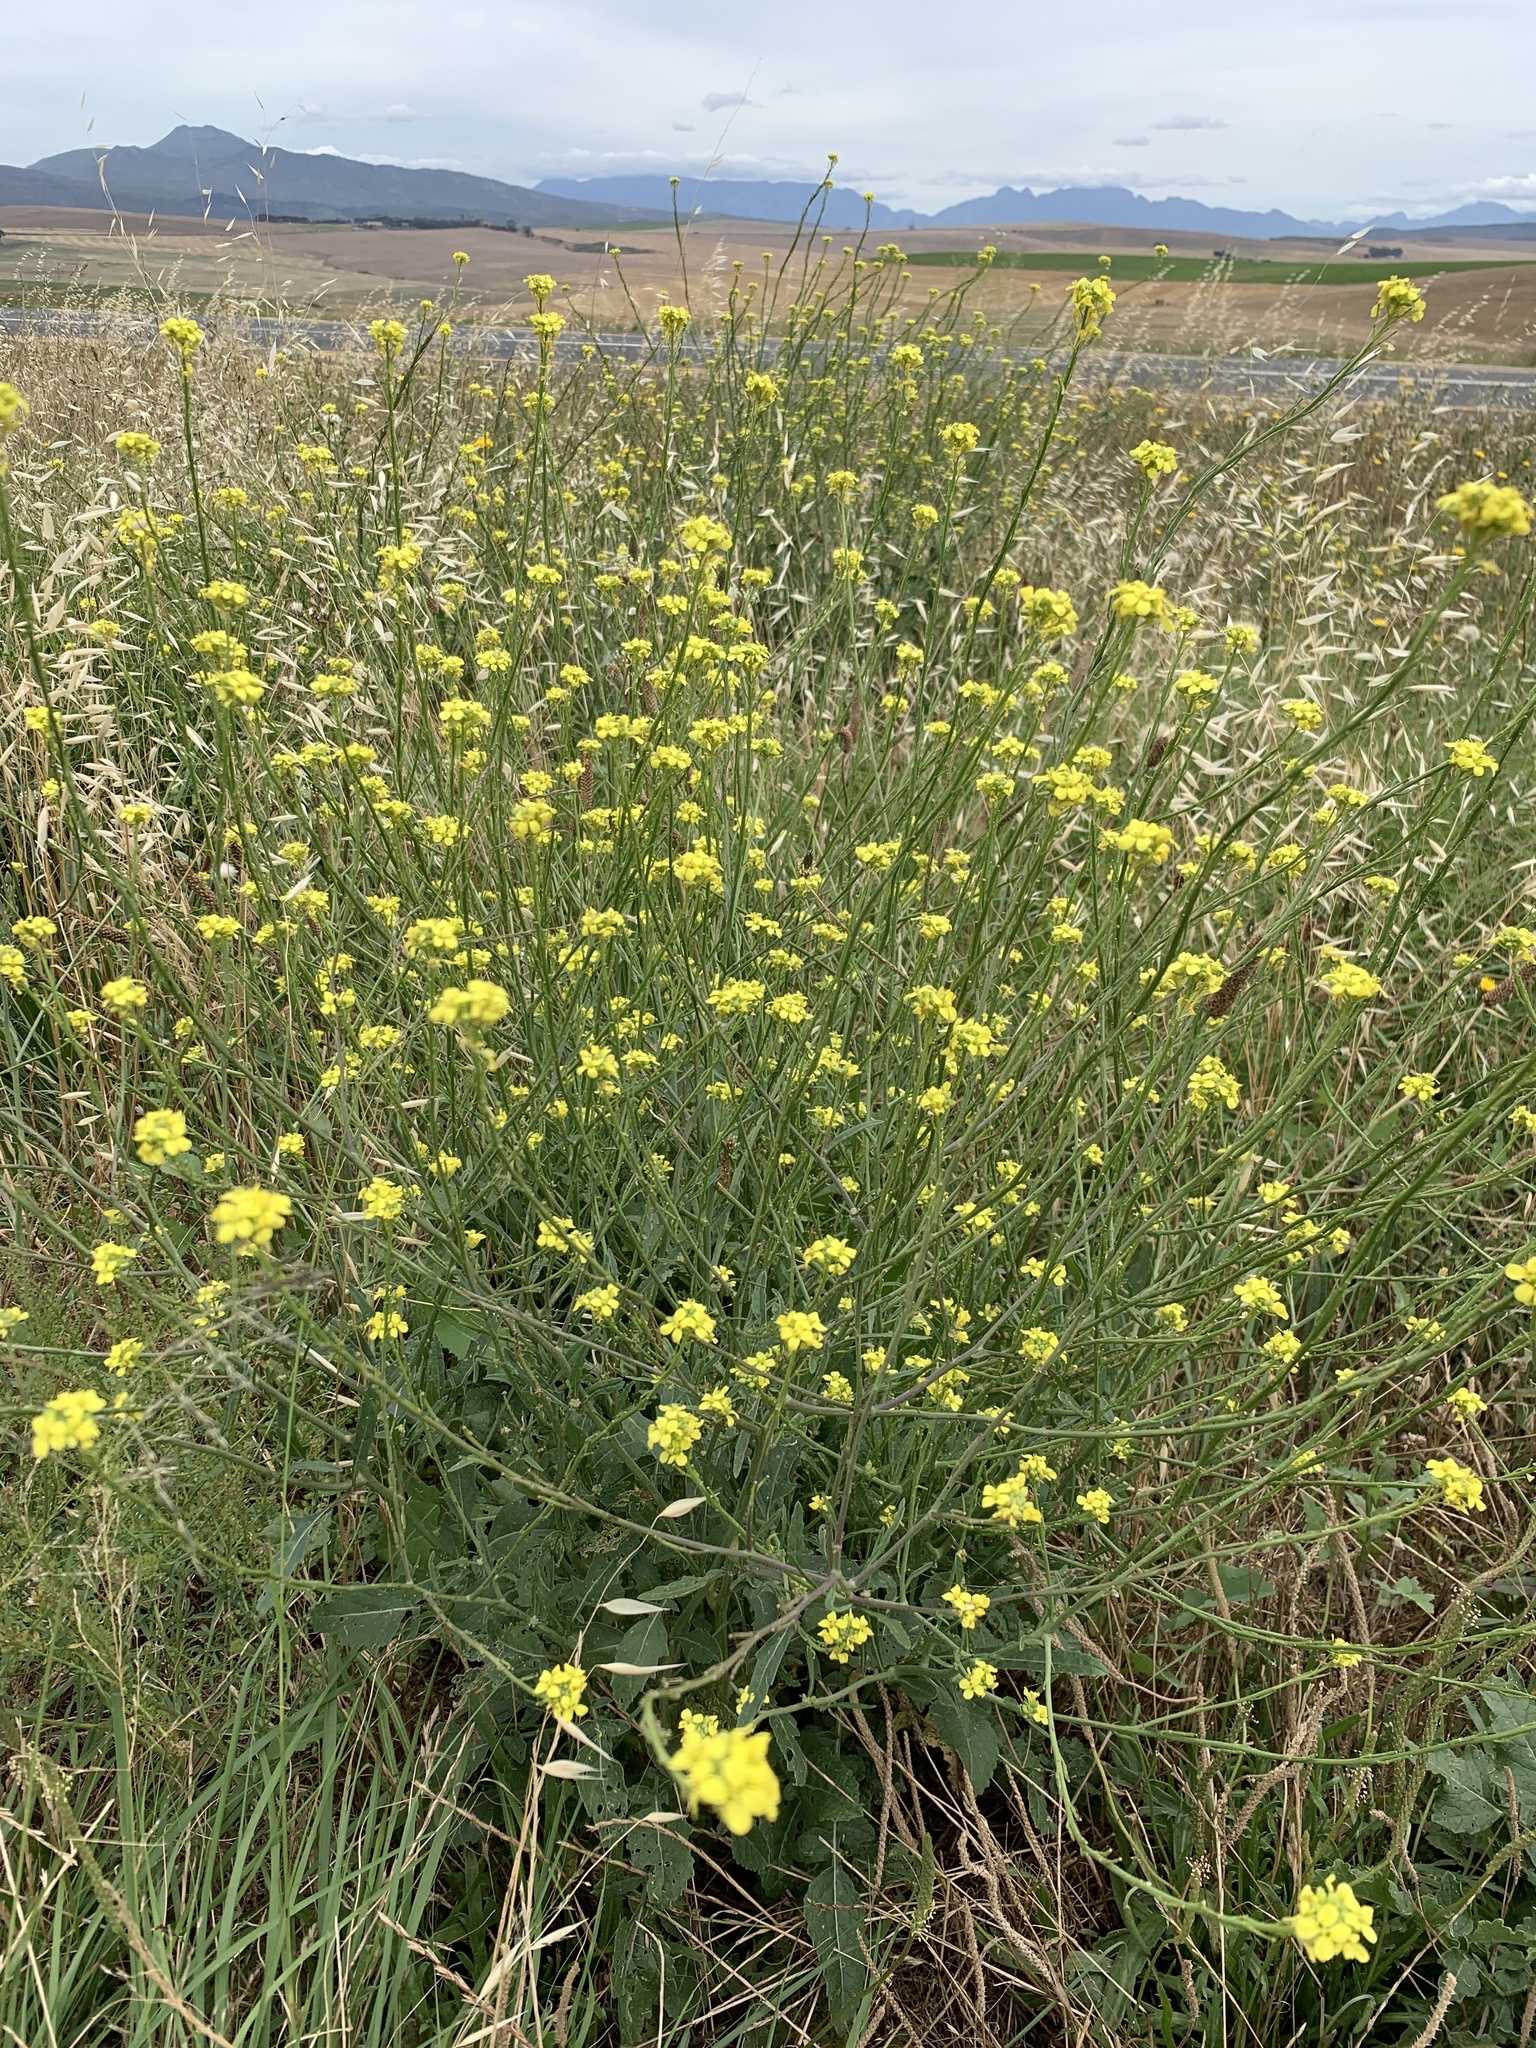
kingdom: Plantae
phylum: Tracheophyta
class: Magnoliopsida
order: Brassicales
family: Brassicaceae
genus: Rapistrum
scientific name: Rapistrum rugosum
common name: Annual bastardcabbage
